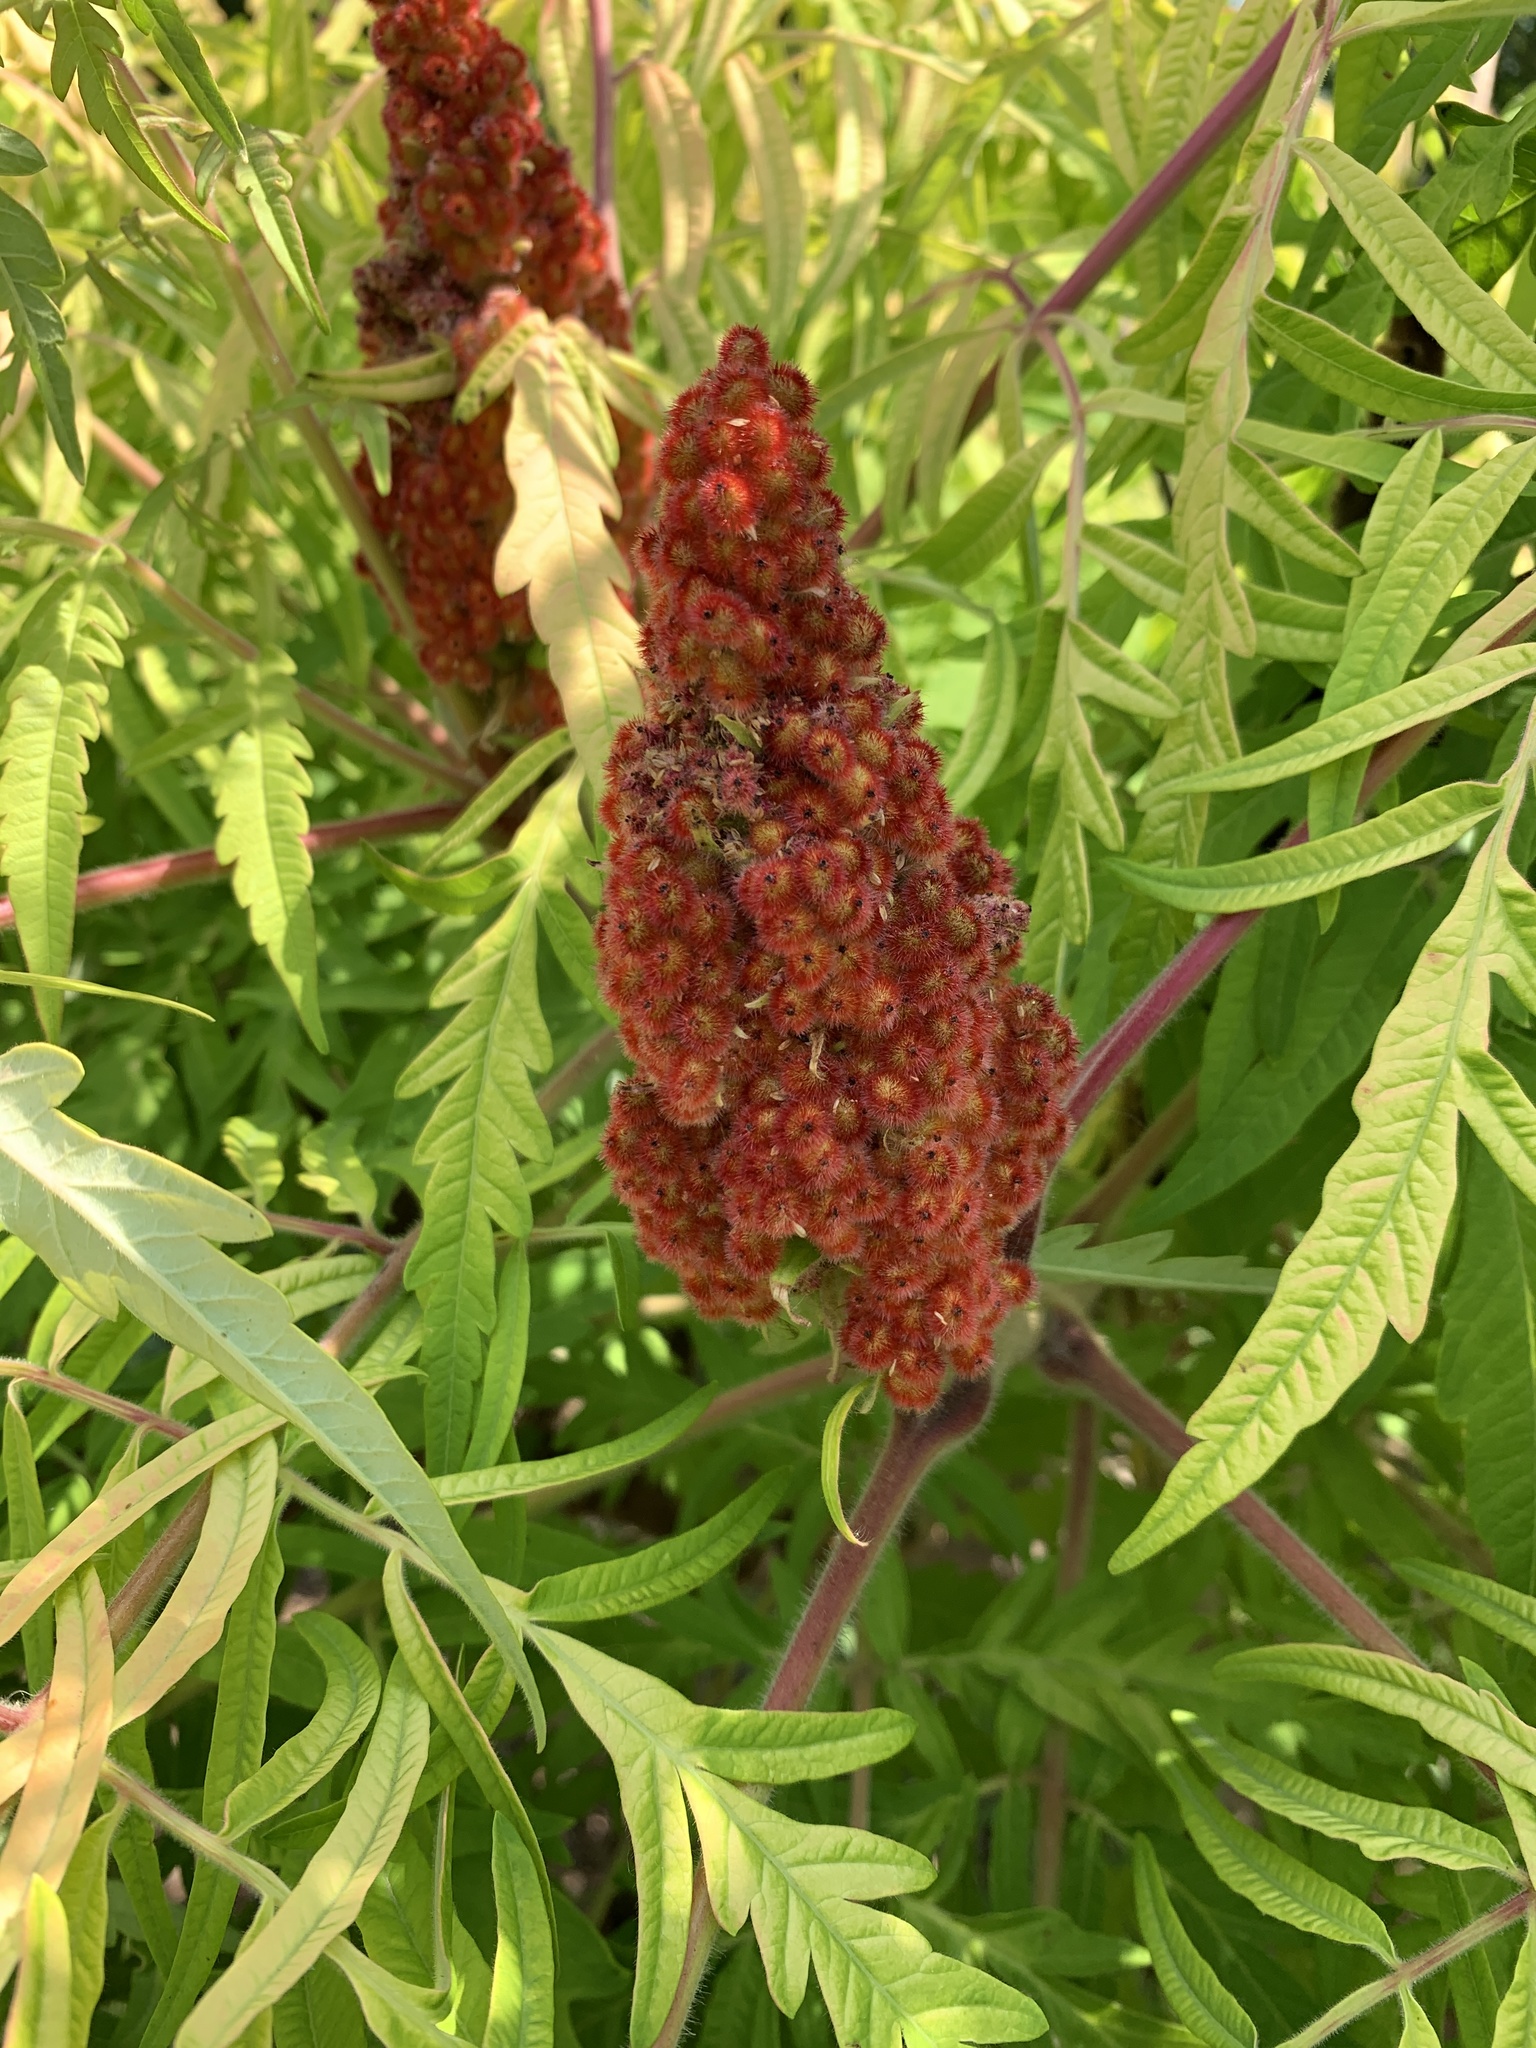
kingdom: Plantae
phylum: Tracheophyta
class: Magnoliopsida
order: Sapindales
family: Anacardiaceae
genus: Rhus
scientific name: Rhus typhina
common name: Staghorn sumac
